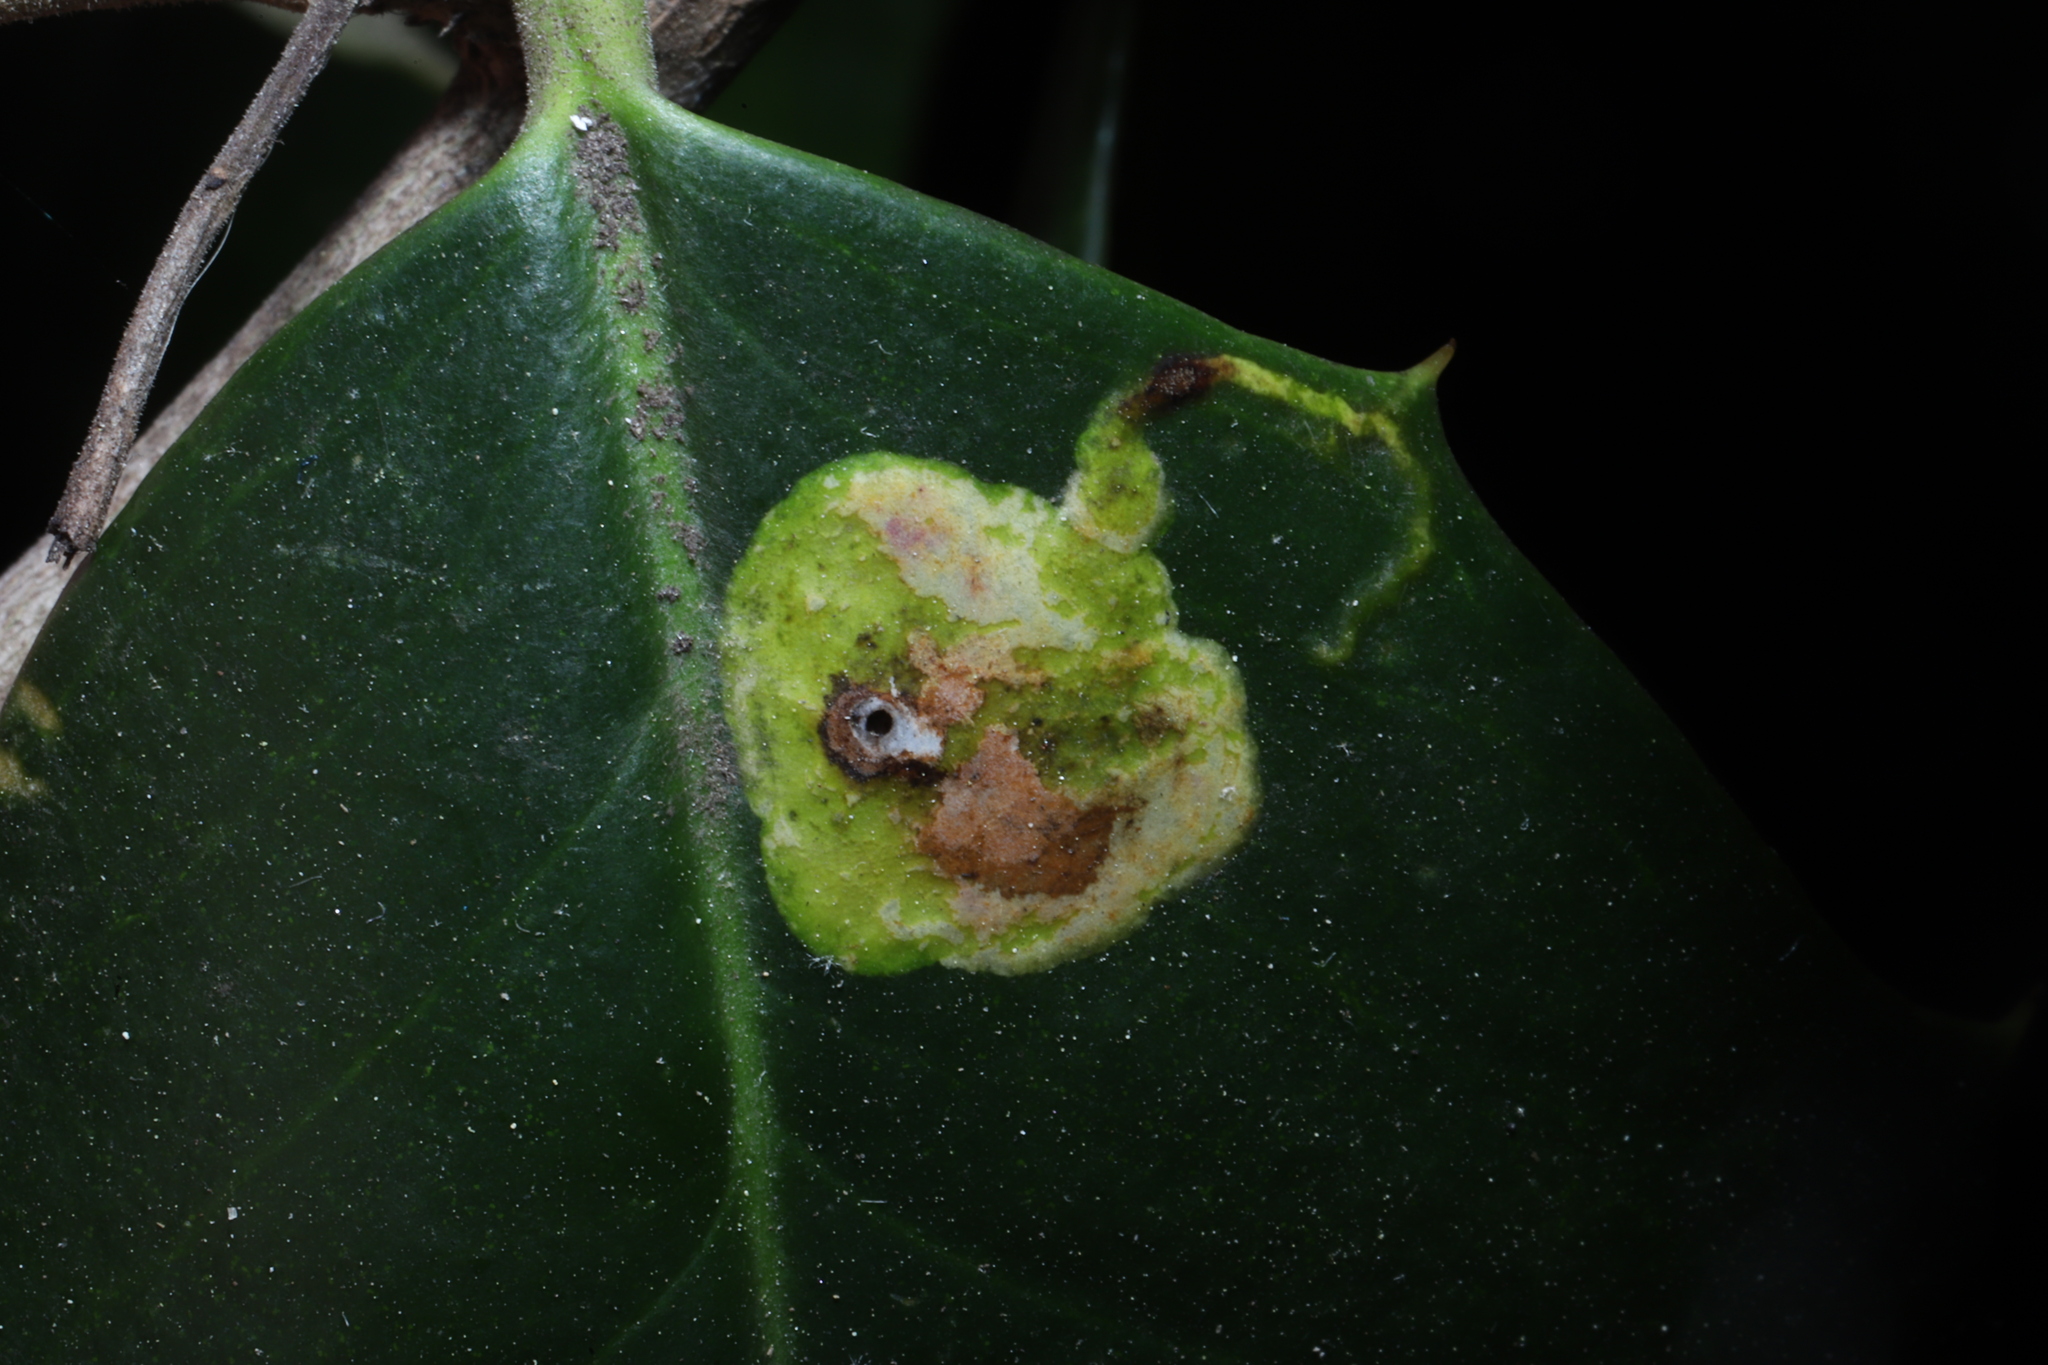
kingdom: Animalia
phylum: Arthropoda
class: Insecta
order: Diptera
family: Agromyzidae
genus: Phytomyza
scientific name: Phytomyza ilicicola
